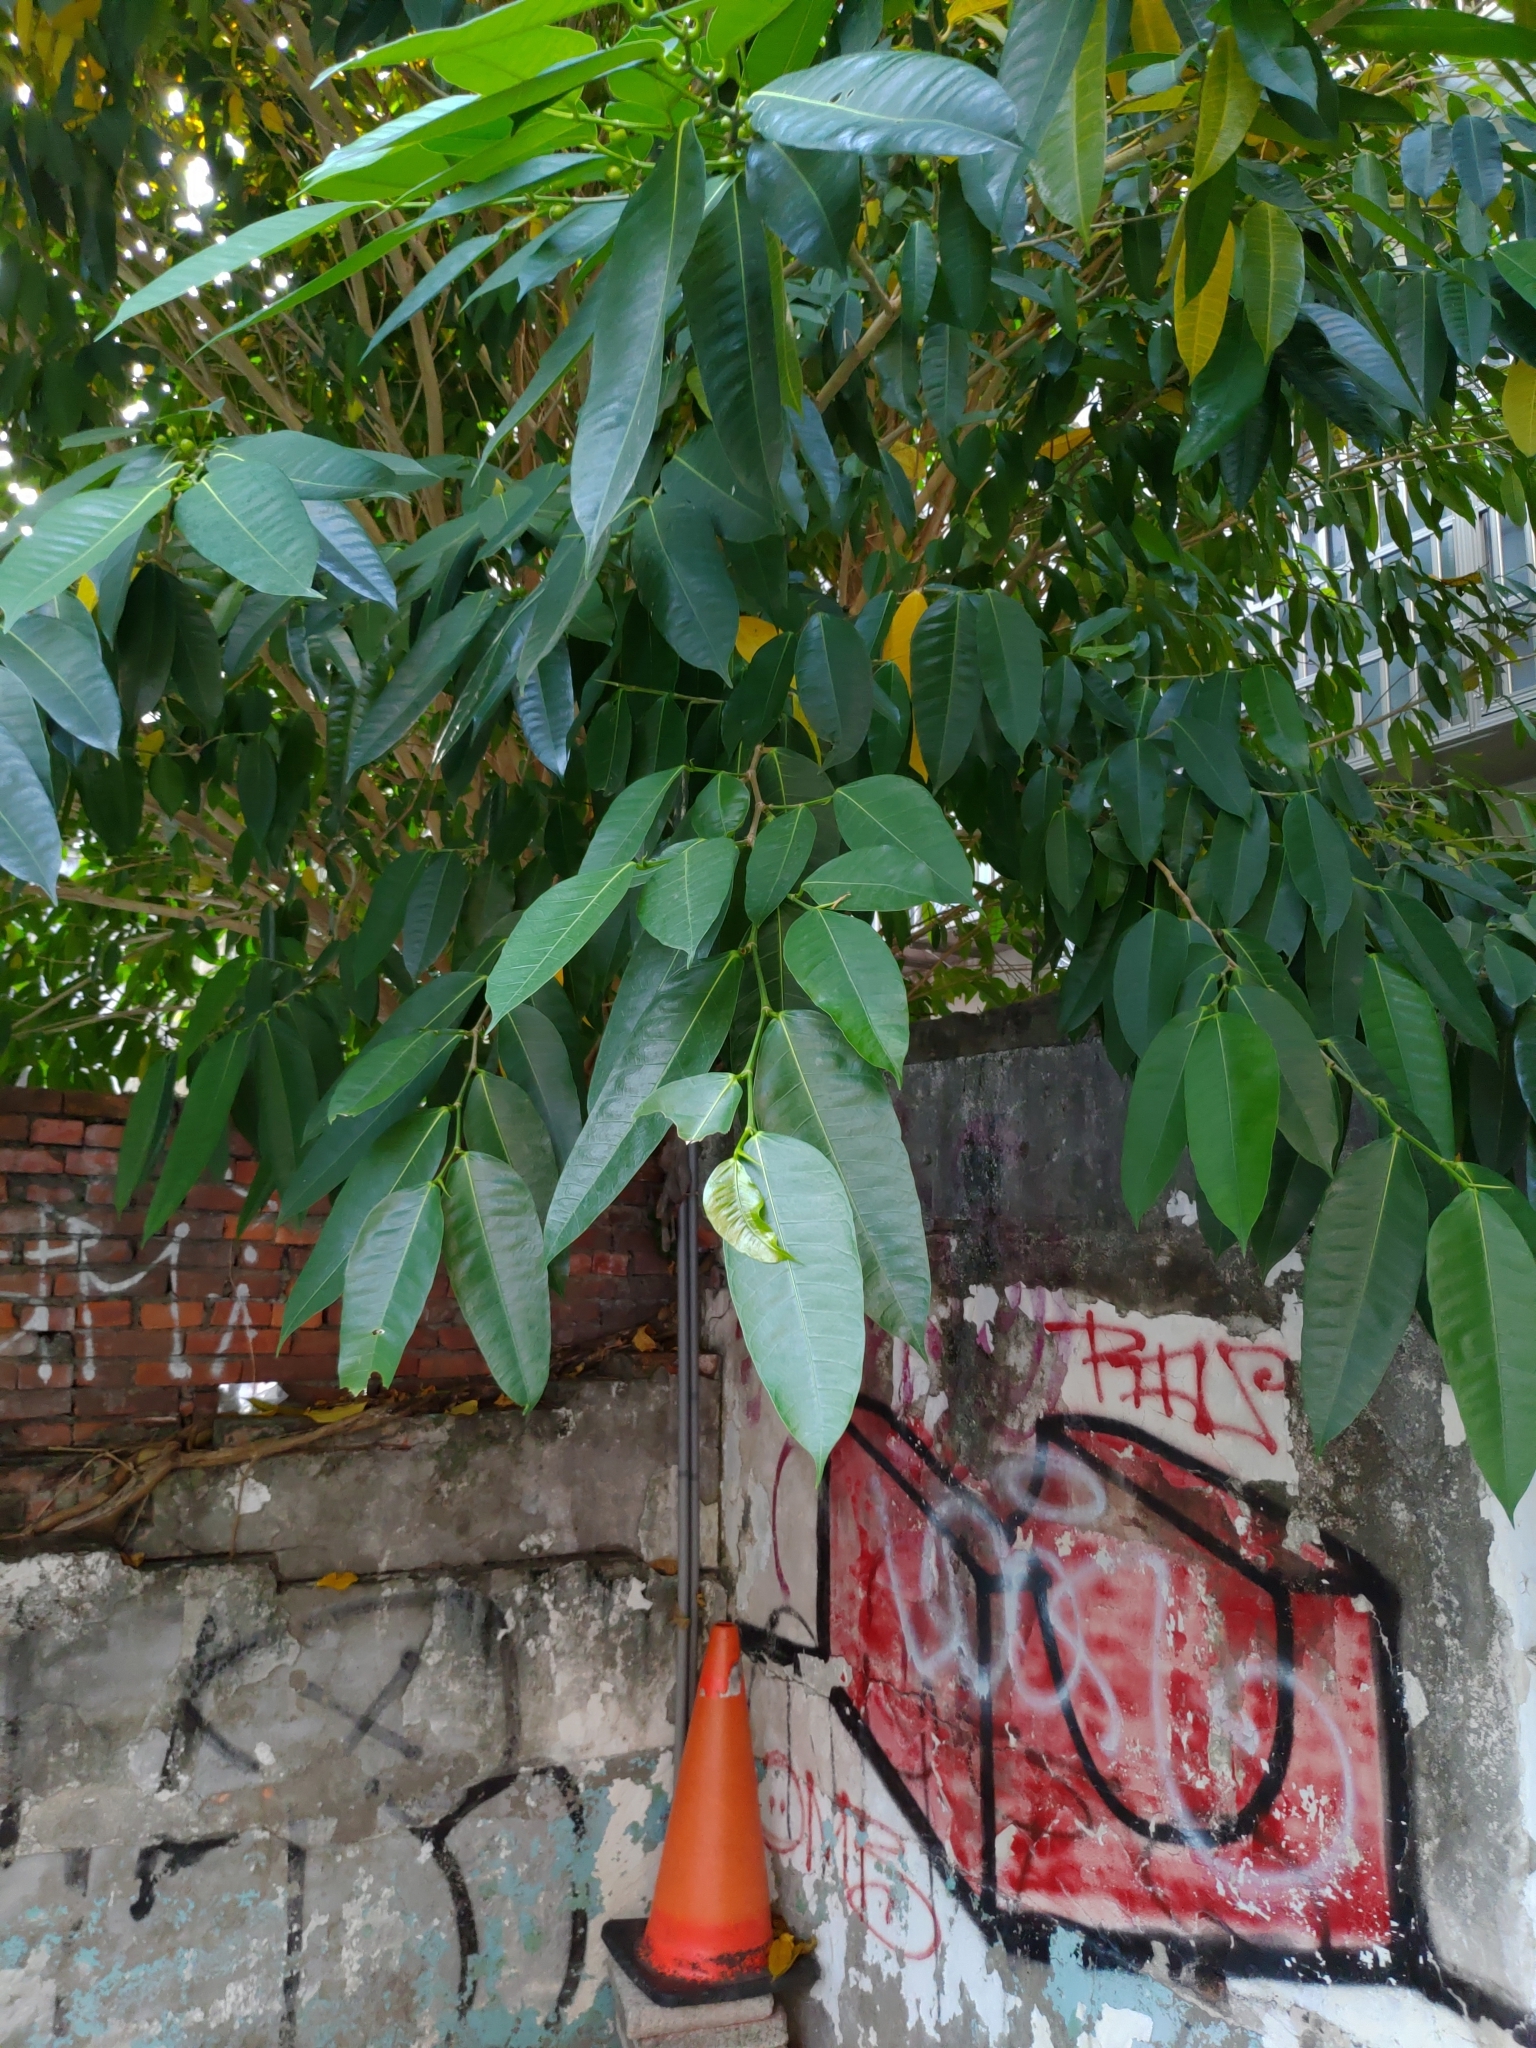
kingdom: Plantae
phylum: Tracheophyta
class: Magnoliopsida
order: Rosales
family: Moraceae
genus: Ficus
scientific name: Ficus virgata
